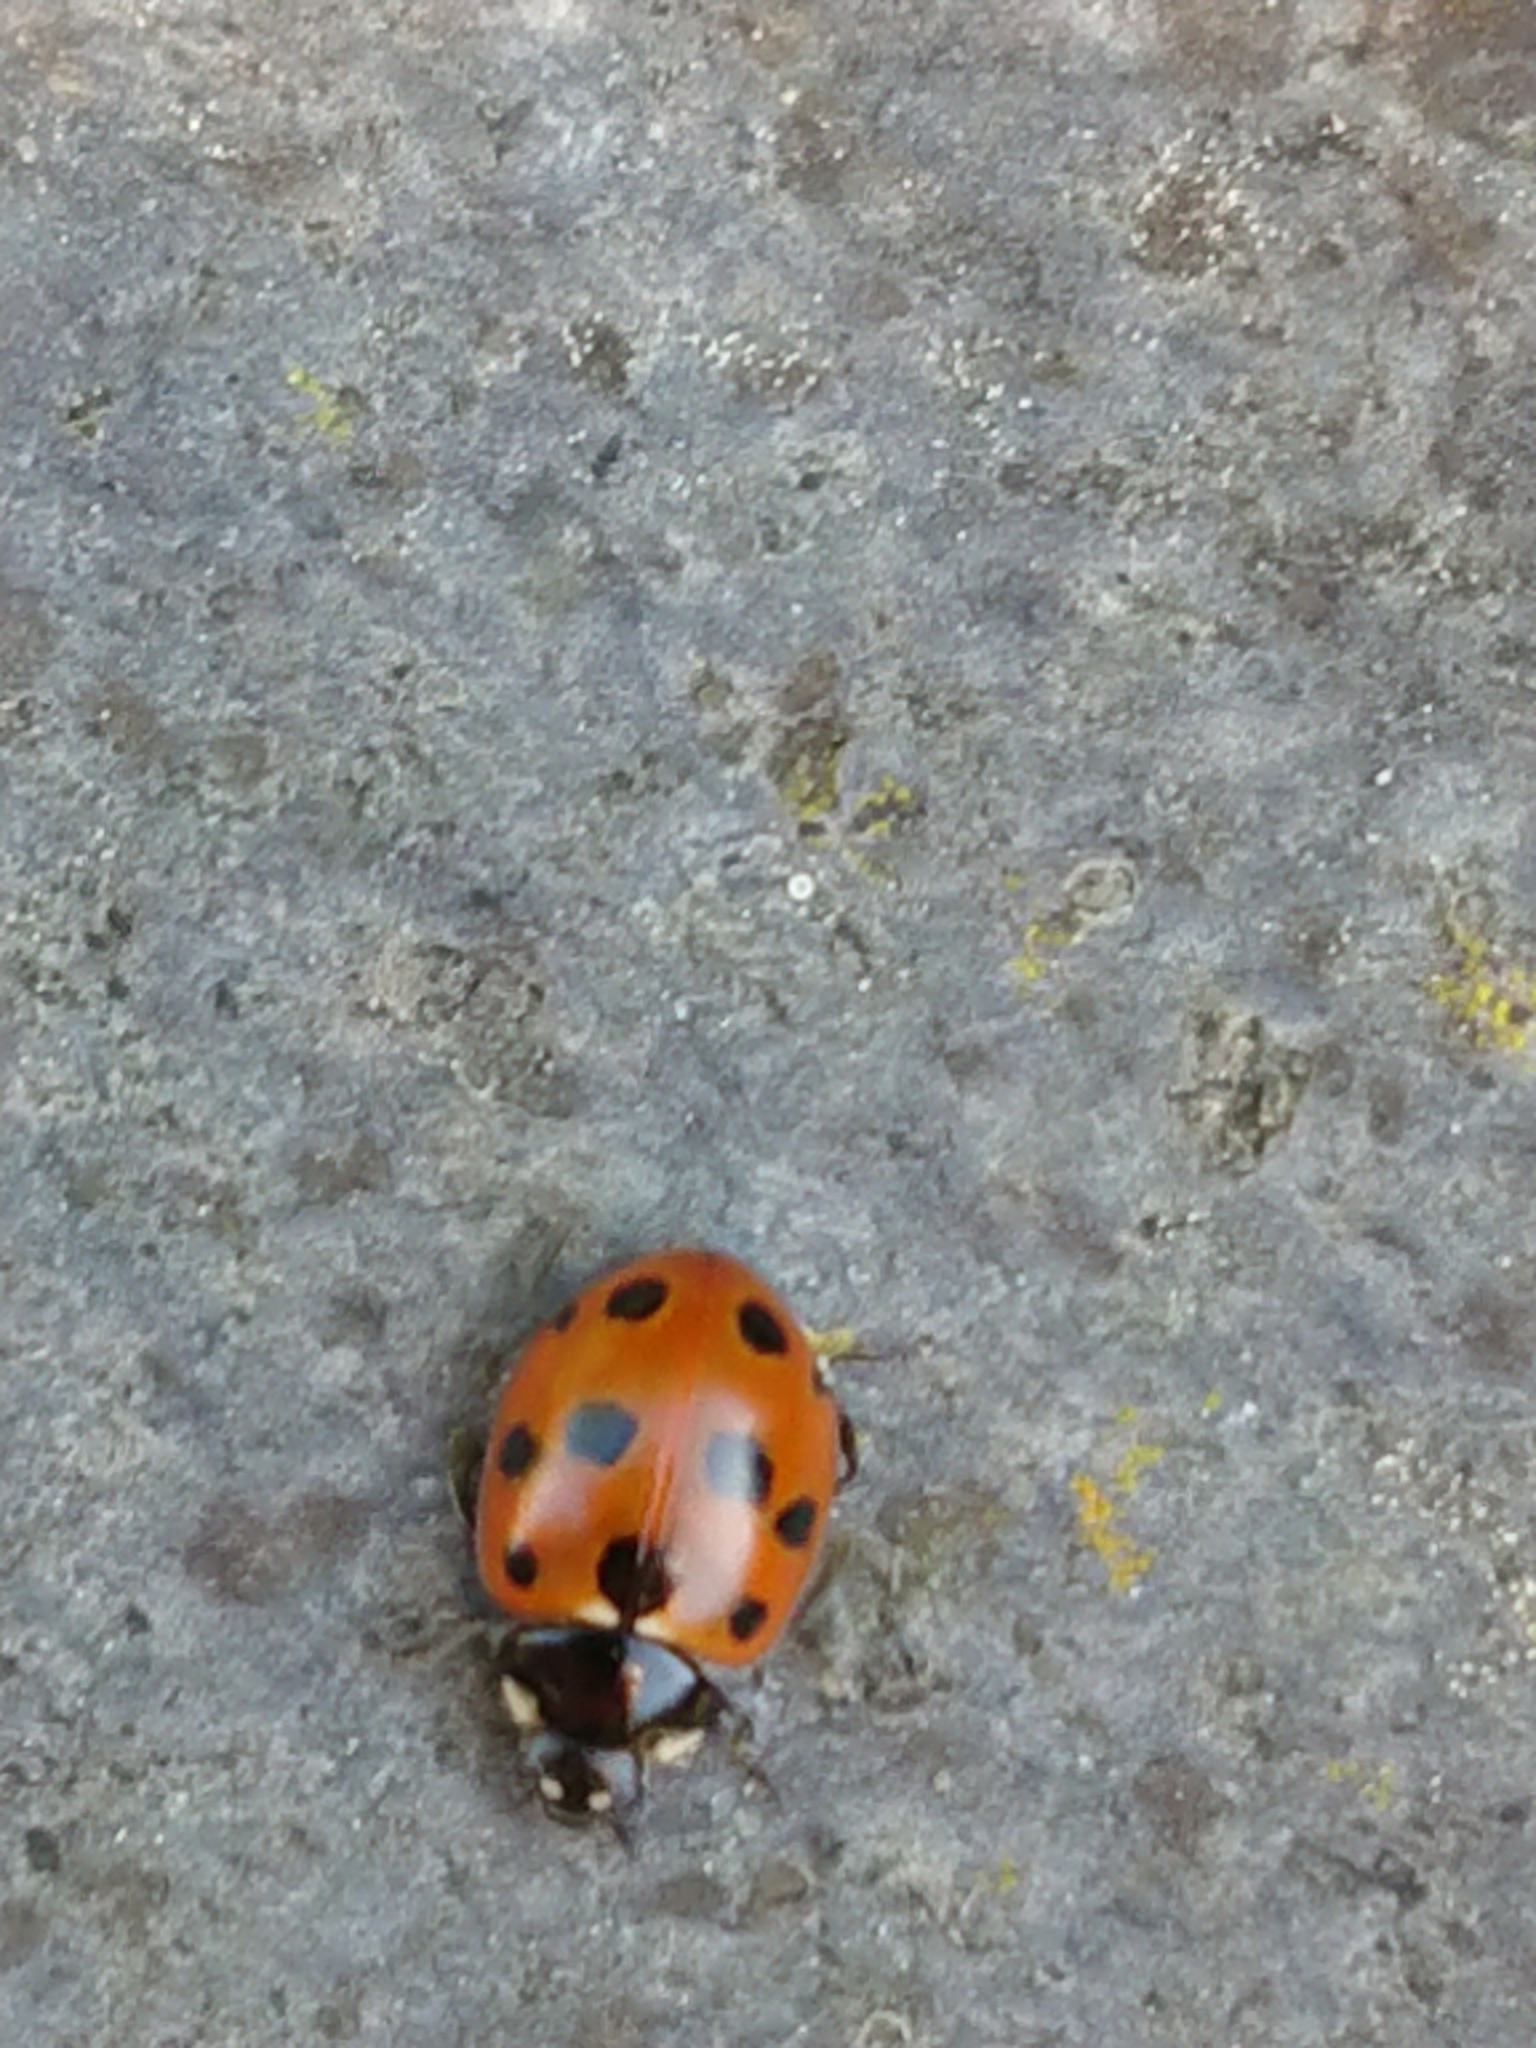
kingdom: Animalia
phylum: Arthropoda
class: Insecta
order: Coleoptera
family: Coccinellidae
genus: Coccinella
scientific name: Coccinella undecimpunctata
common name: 11-spot ladybird
